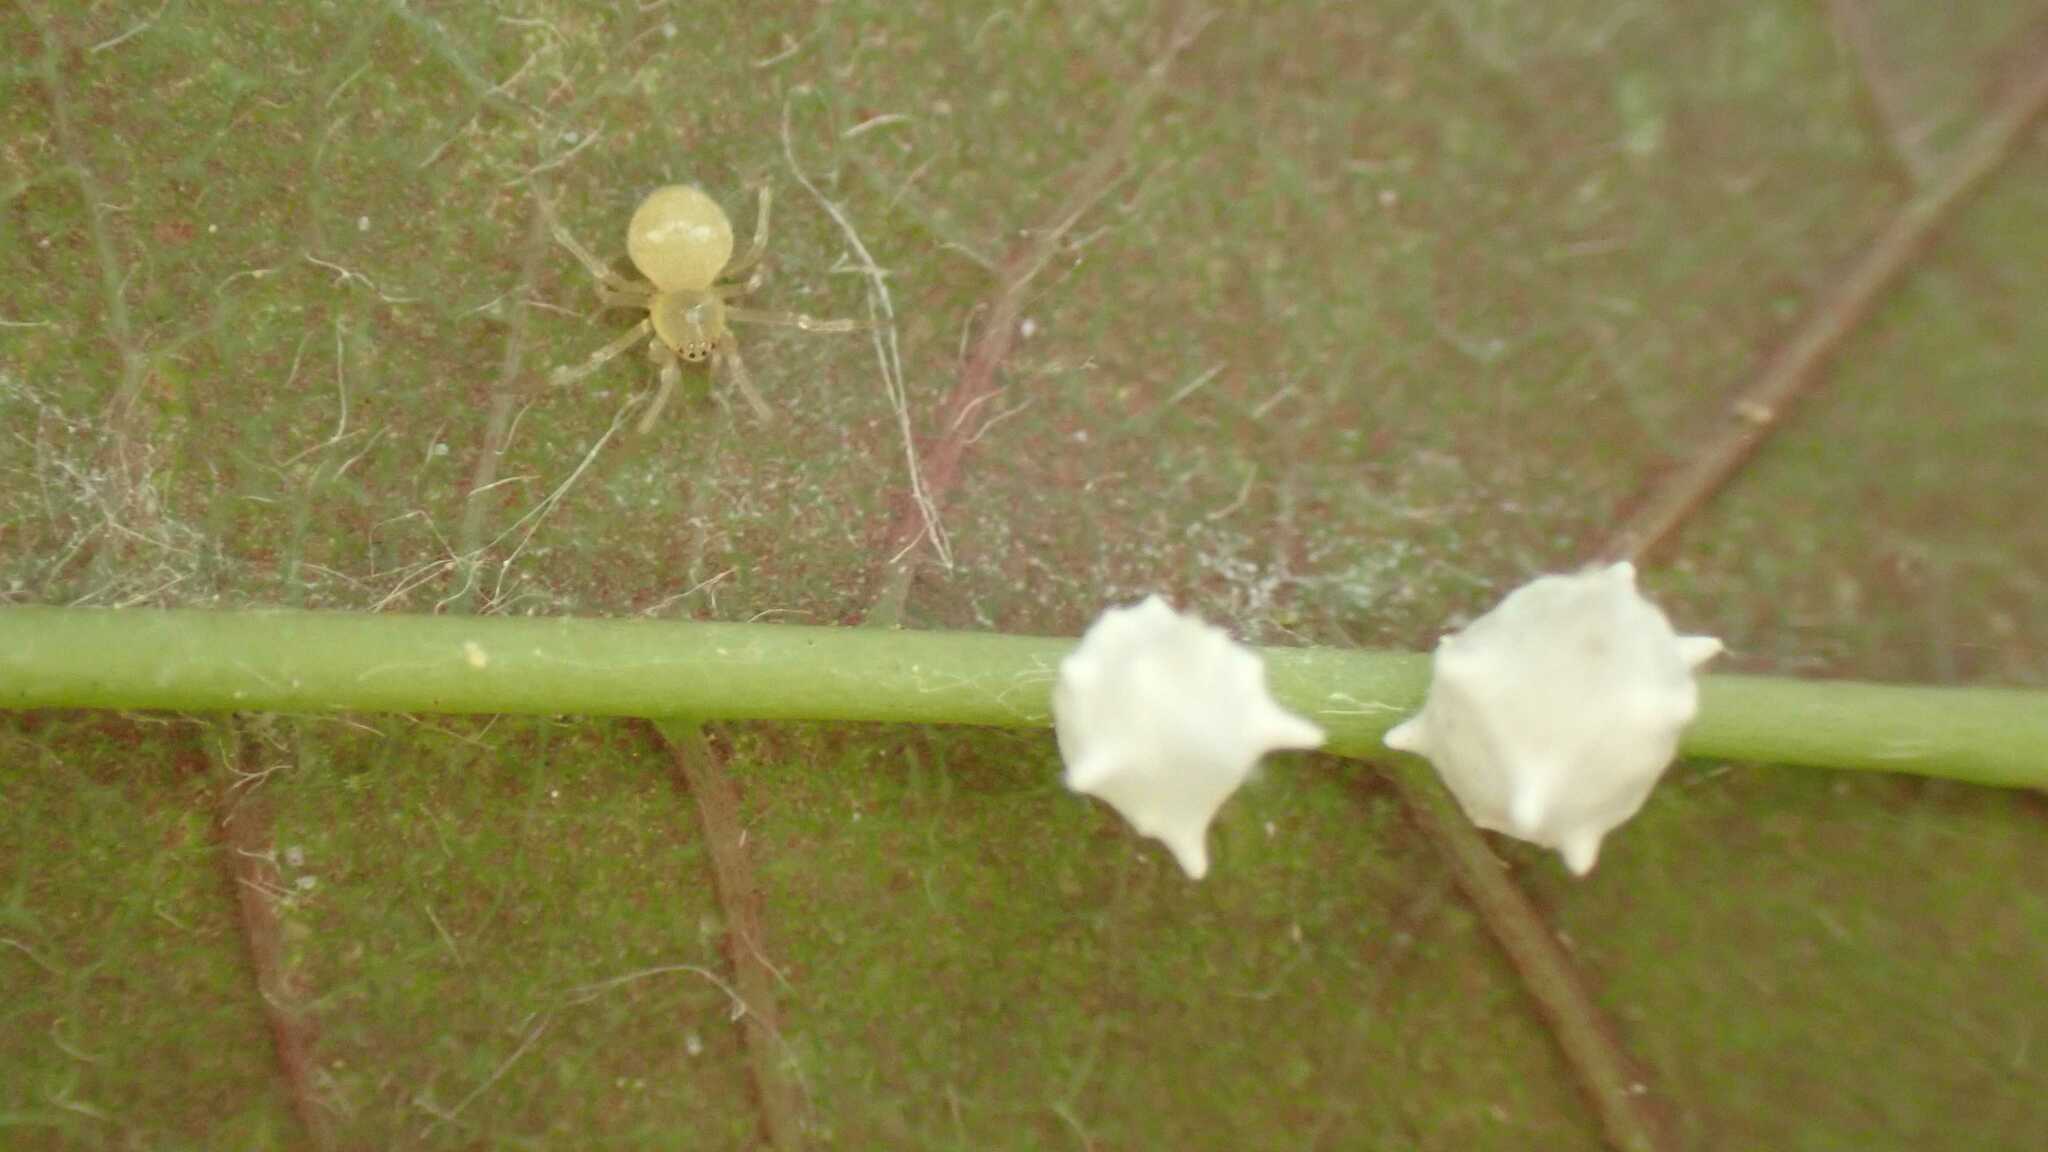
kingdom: Animalia
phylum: Arthropoda
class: Arachnida
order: Araneae
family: Theridiidae
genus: Paidiscura
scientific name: Paidiscura pallens
